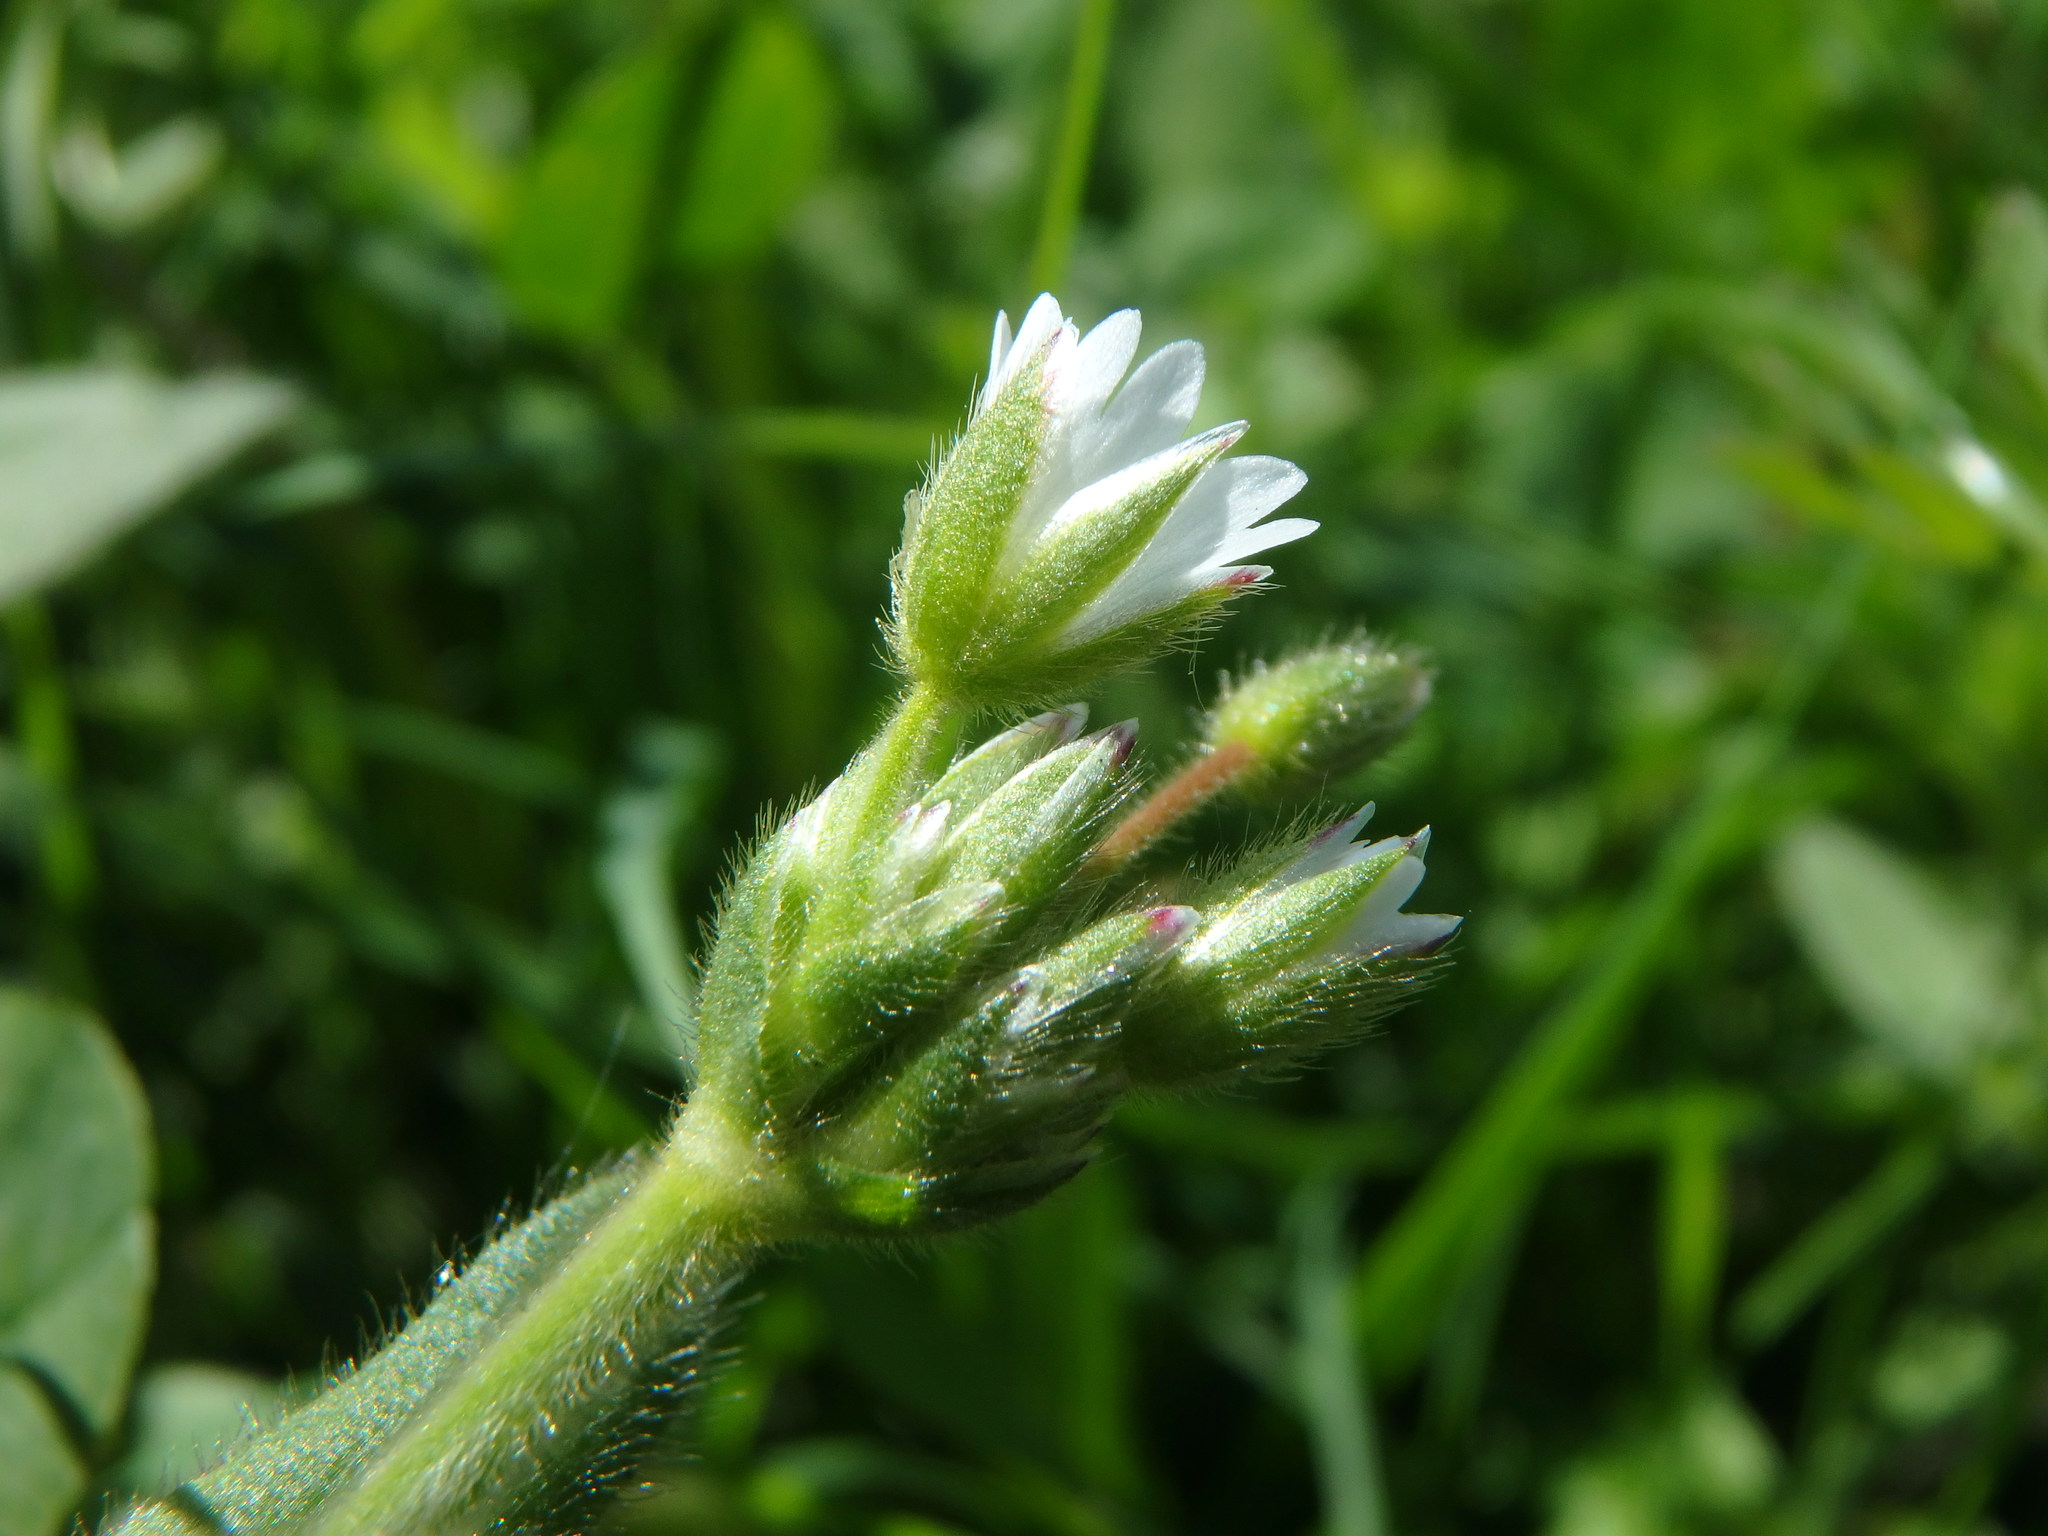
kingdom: Plantae
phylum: Tracheophyta
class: Magnoliopsida
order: Caryophyllales
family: Caryophyllaceae
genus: Cerastium
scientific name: Cerastium fontanum
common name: Common mouse-ear
